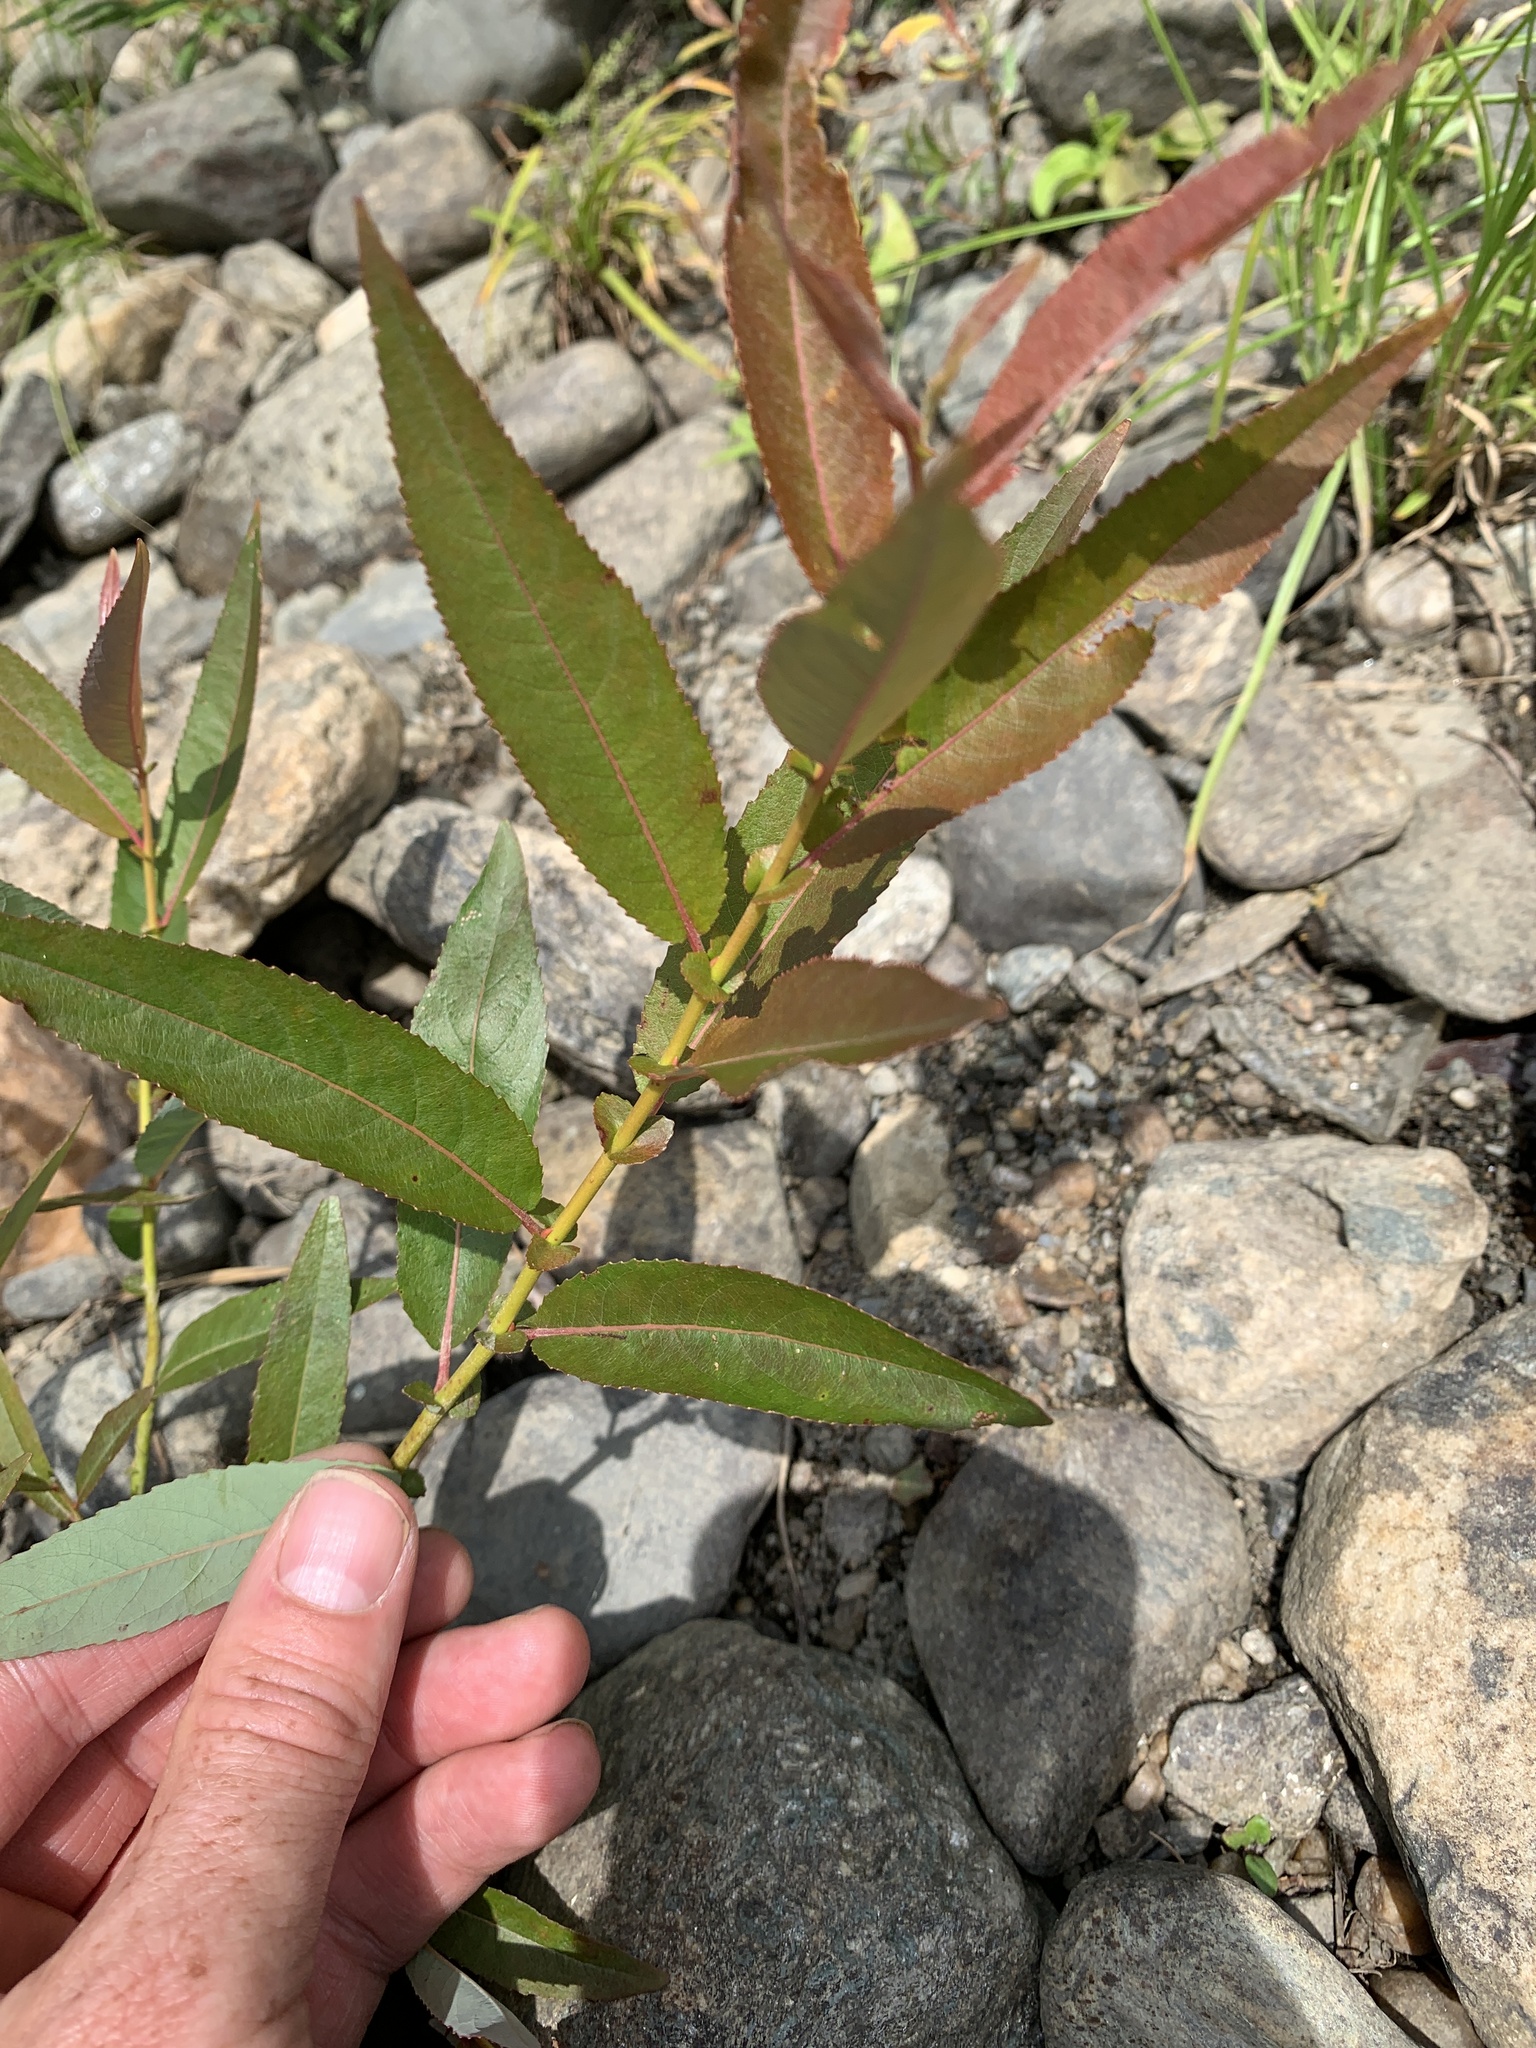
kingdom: Plantae
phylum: Tracheophyta
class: Magnoliopsida
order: Malpighiales
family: Salicaceae
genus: Salix
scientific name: Salix eriocephala
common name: Heart-leaved willow
